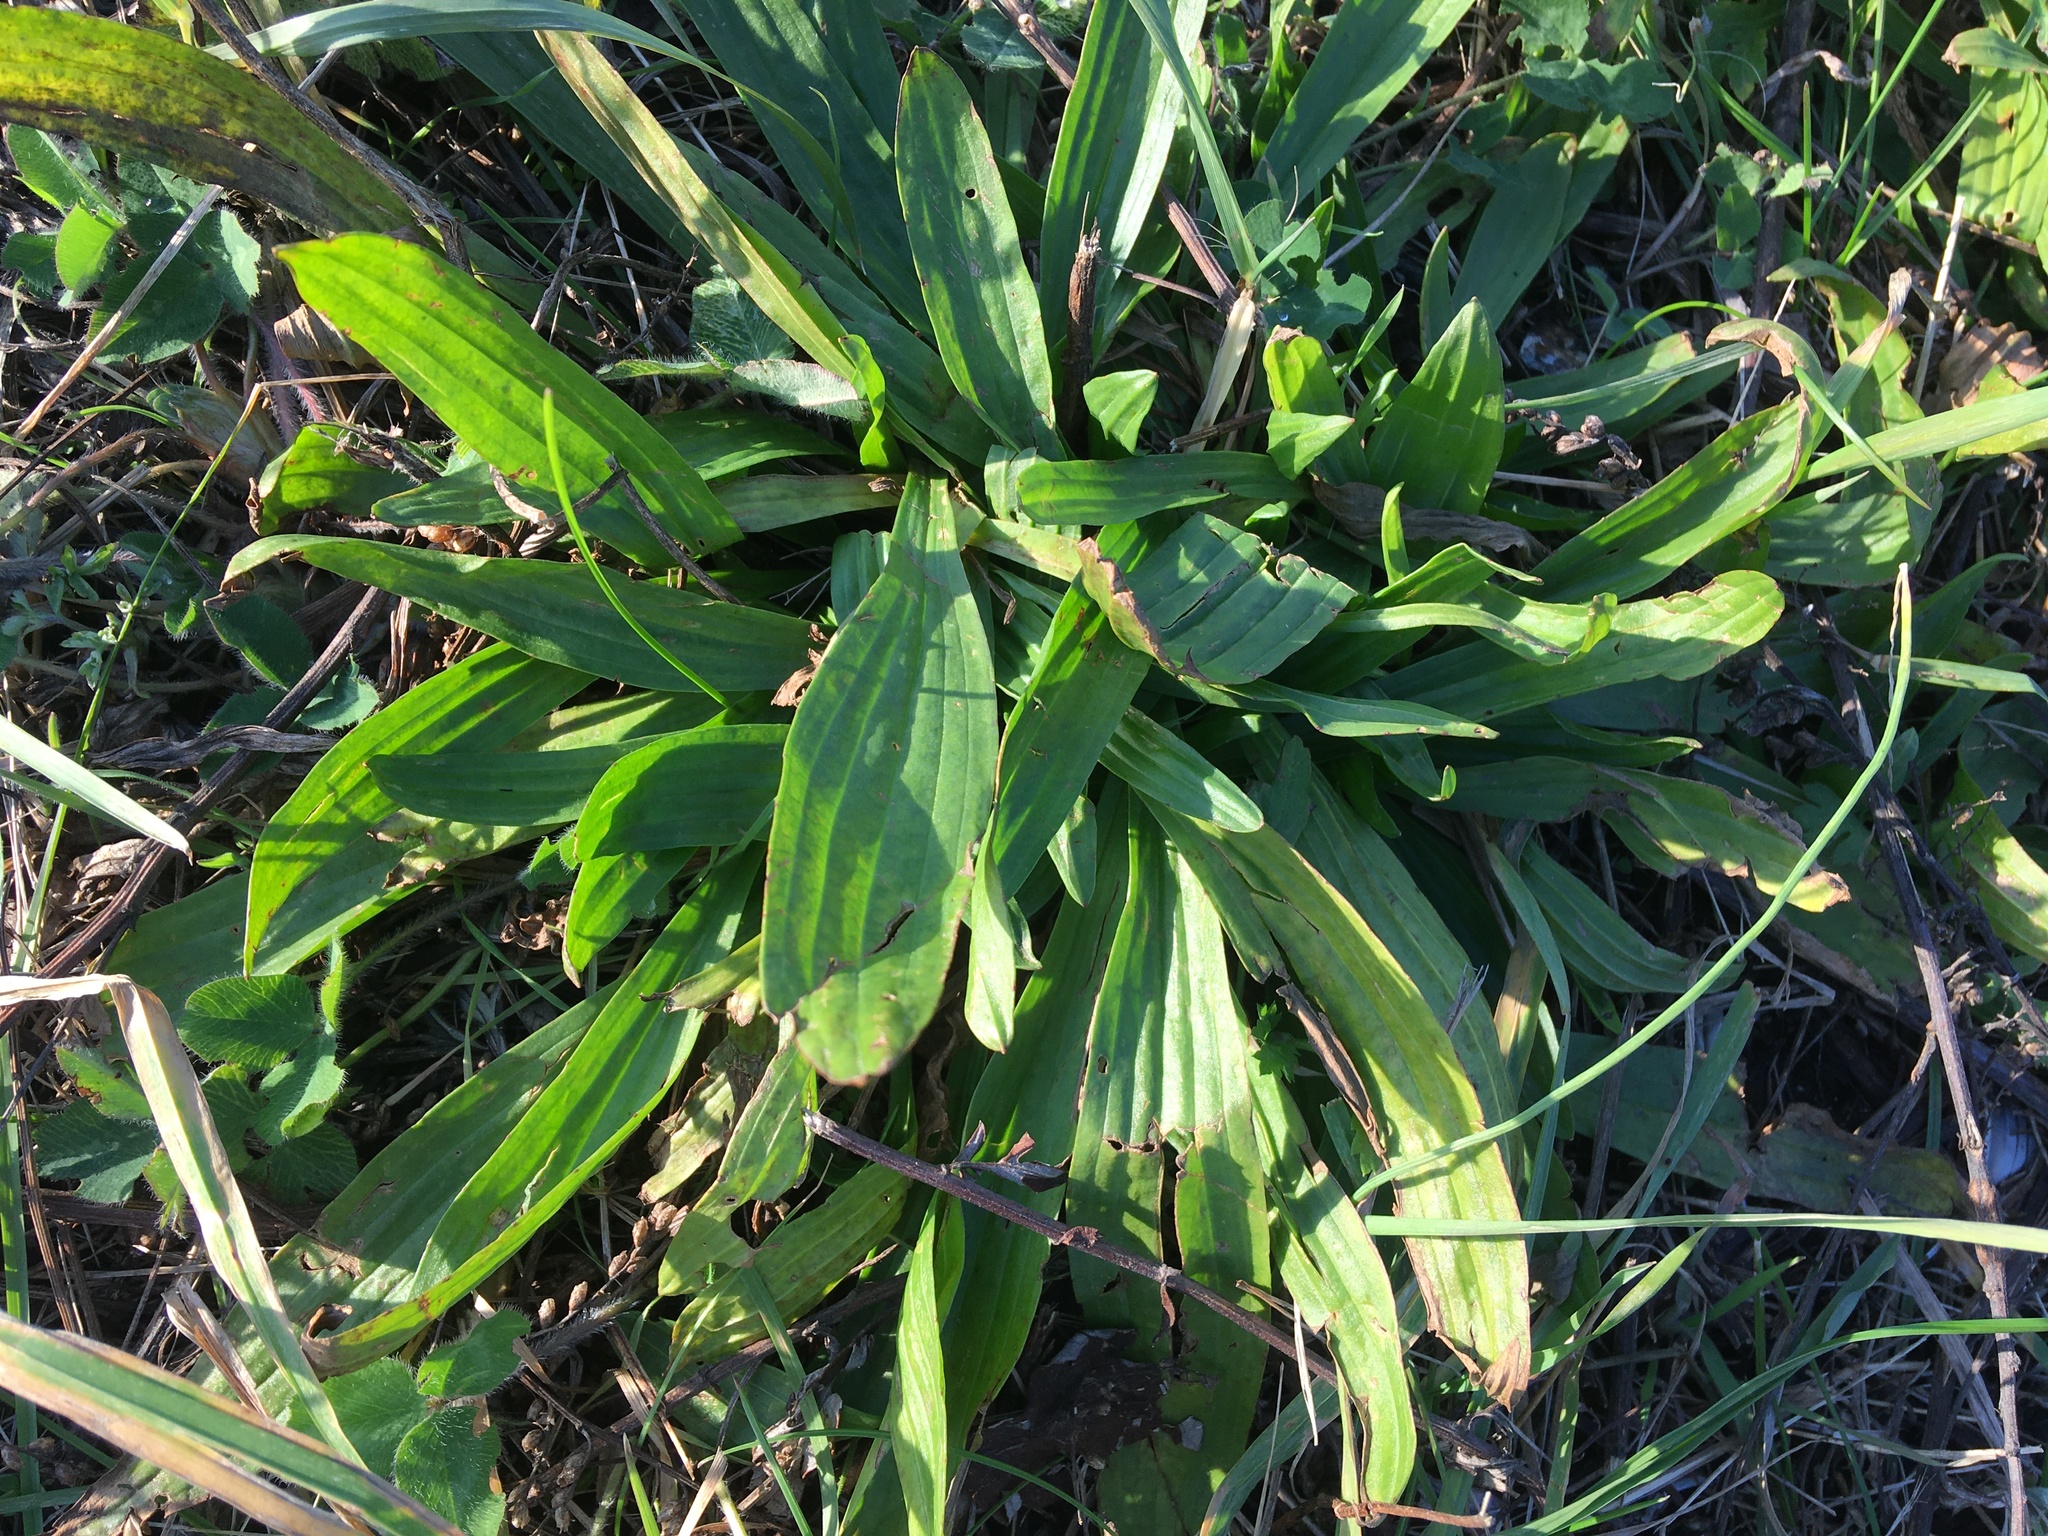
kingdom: Plantae
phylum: Tracheophyta
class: Magnoliopsida
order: Lamiales
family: Plantaginaceae
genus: Plantago
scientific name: Plantago lanceolata
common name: Ribwort plantain
